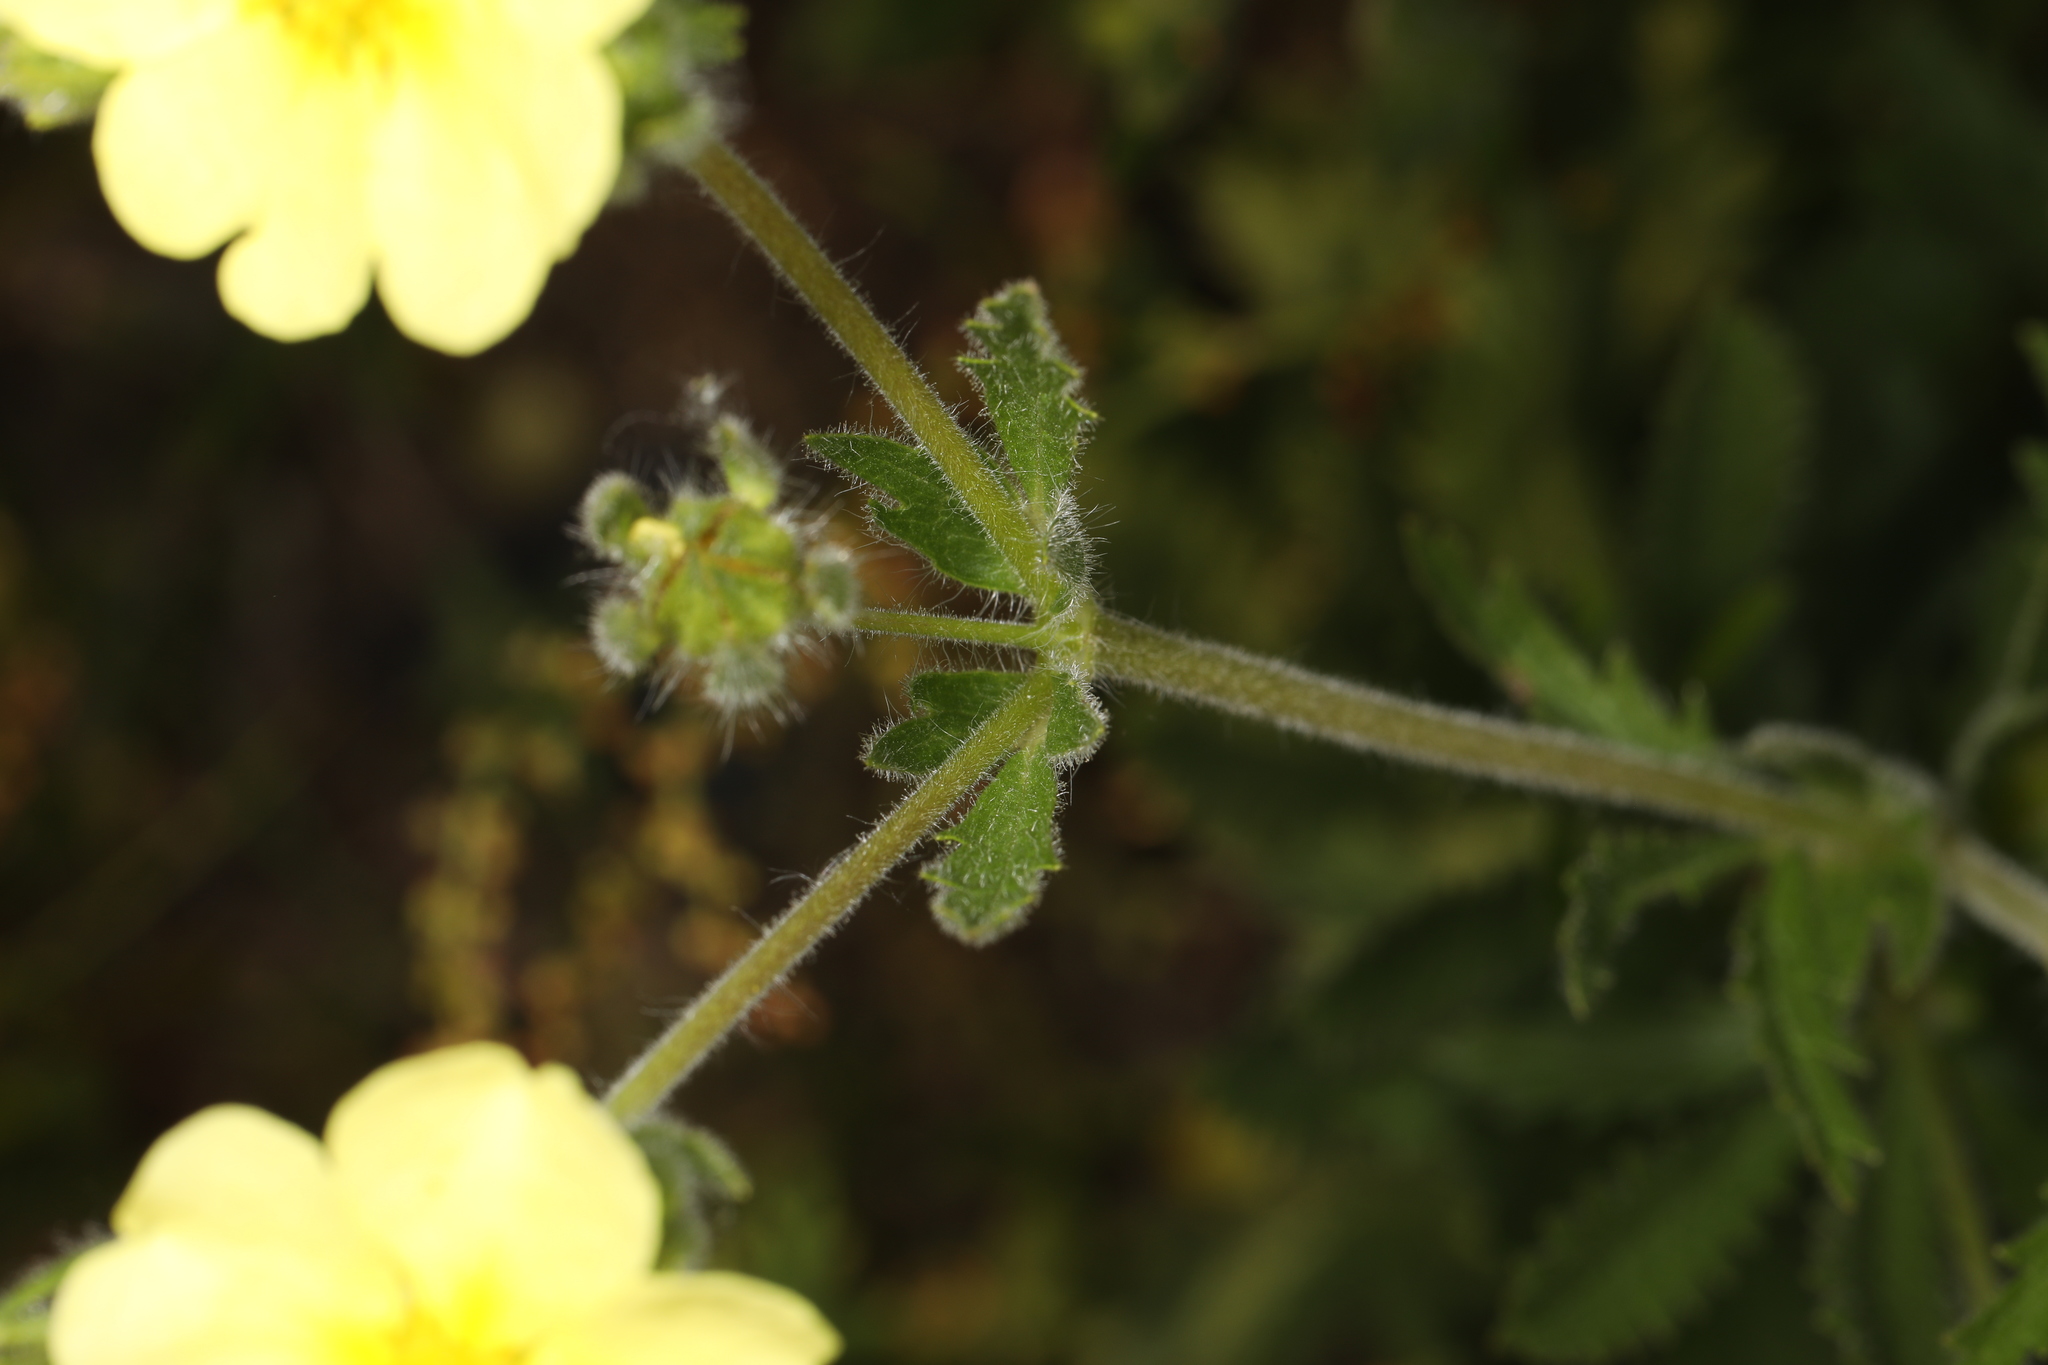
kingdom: Plantae
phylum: Tracheophyta
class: Magnoliopsida
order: Rosales
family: Rosaceae
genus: Potentilla
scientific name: Potentilla recta
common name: Sulphur cinquefoil
